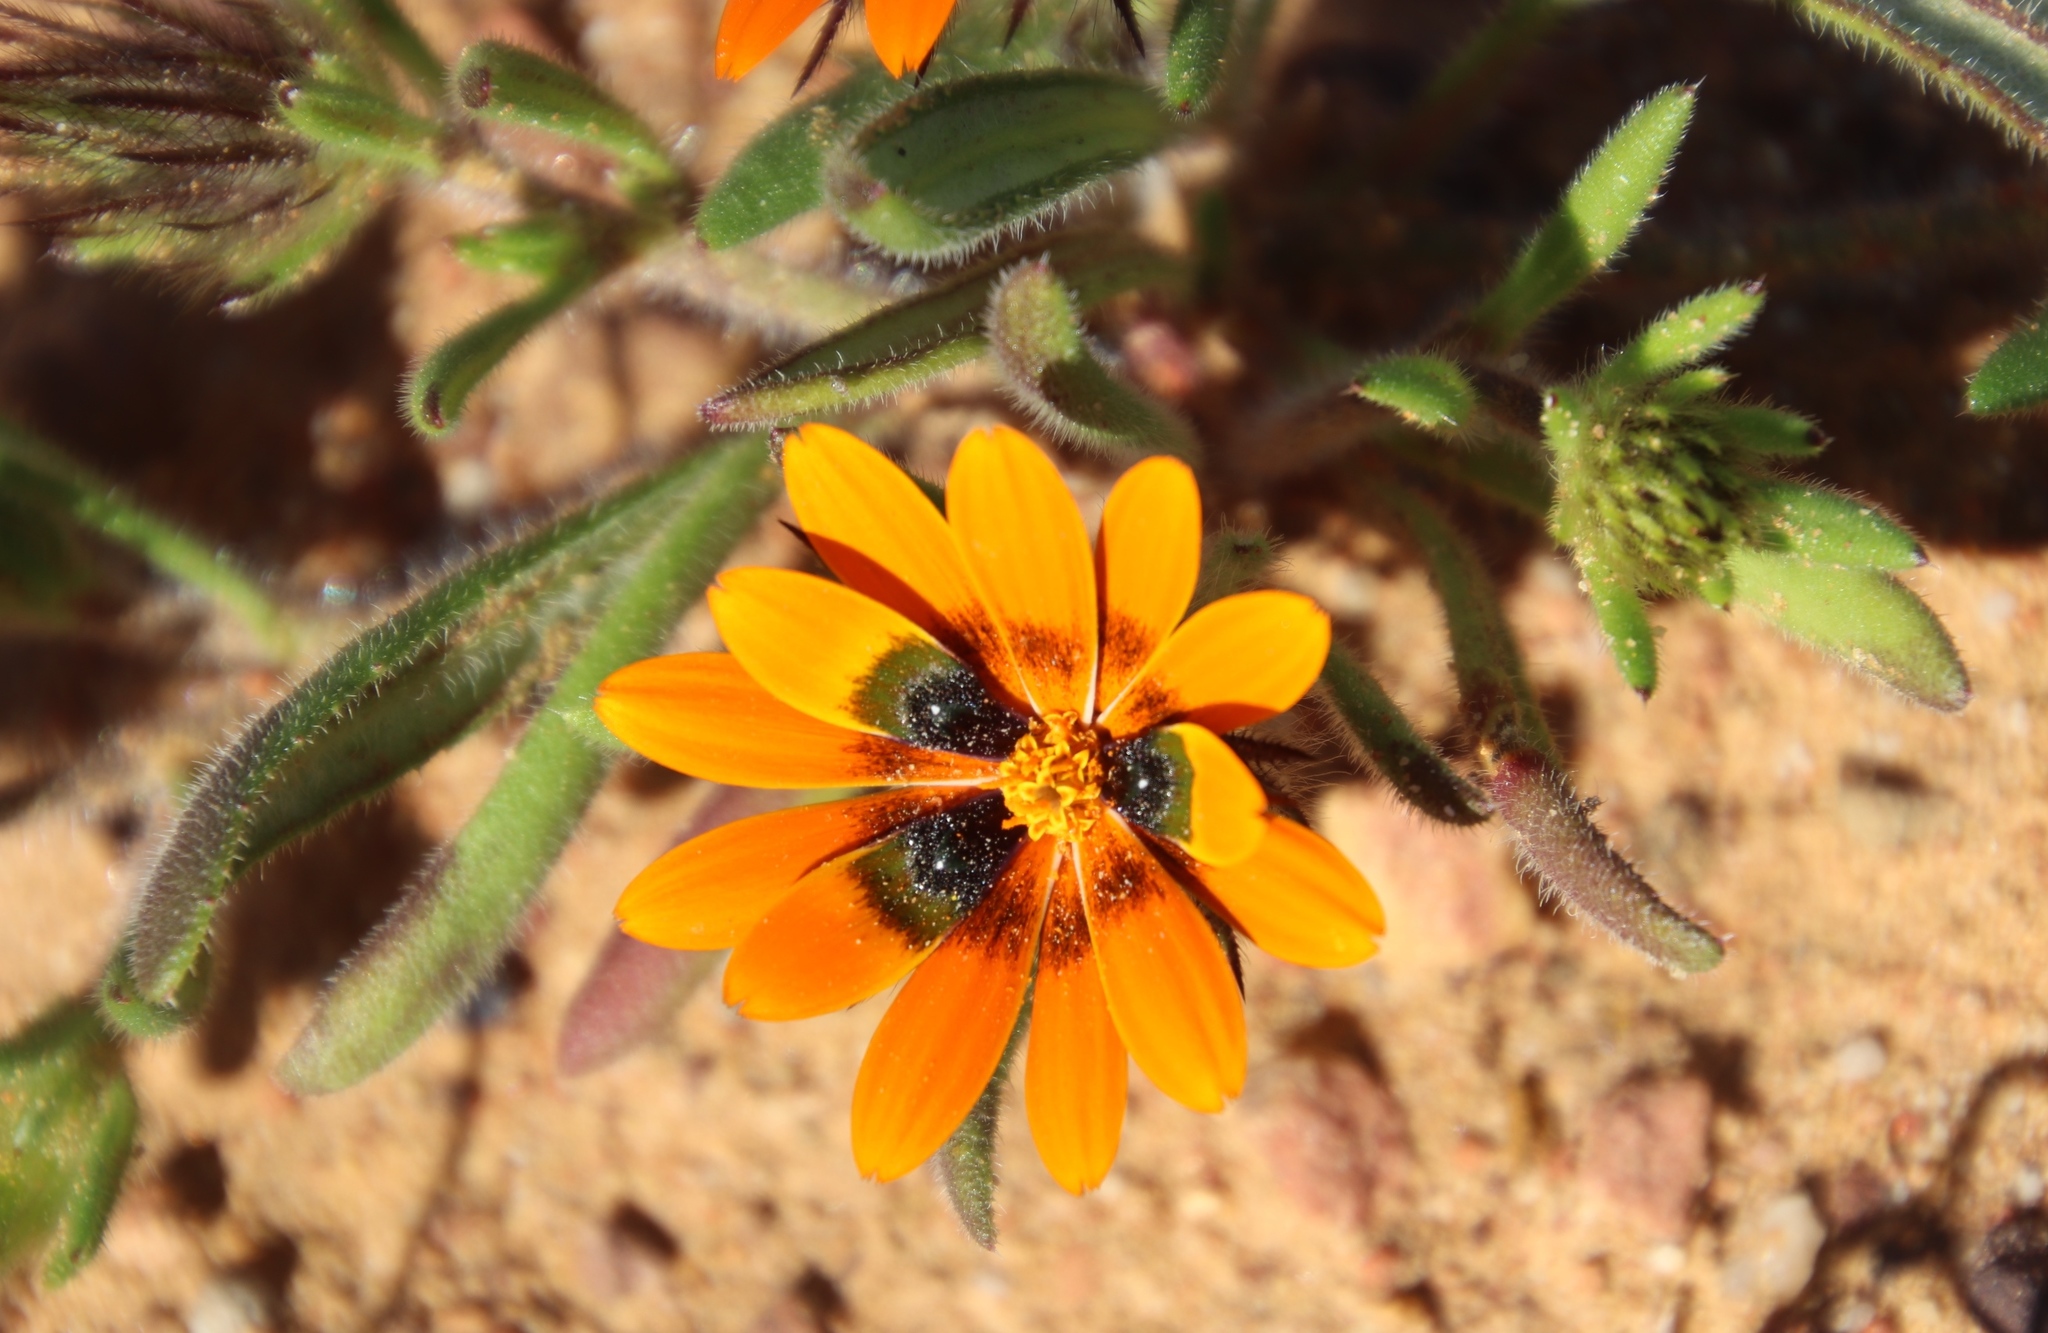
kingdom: Plantae
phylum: Tracheophyta
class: Magnoliopsida
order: Asterales
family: Asteraceae
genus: Gorteria
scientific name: Gorteria diffusa
